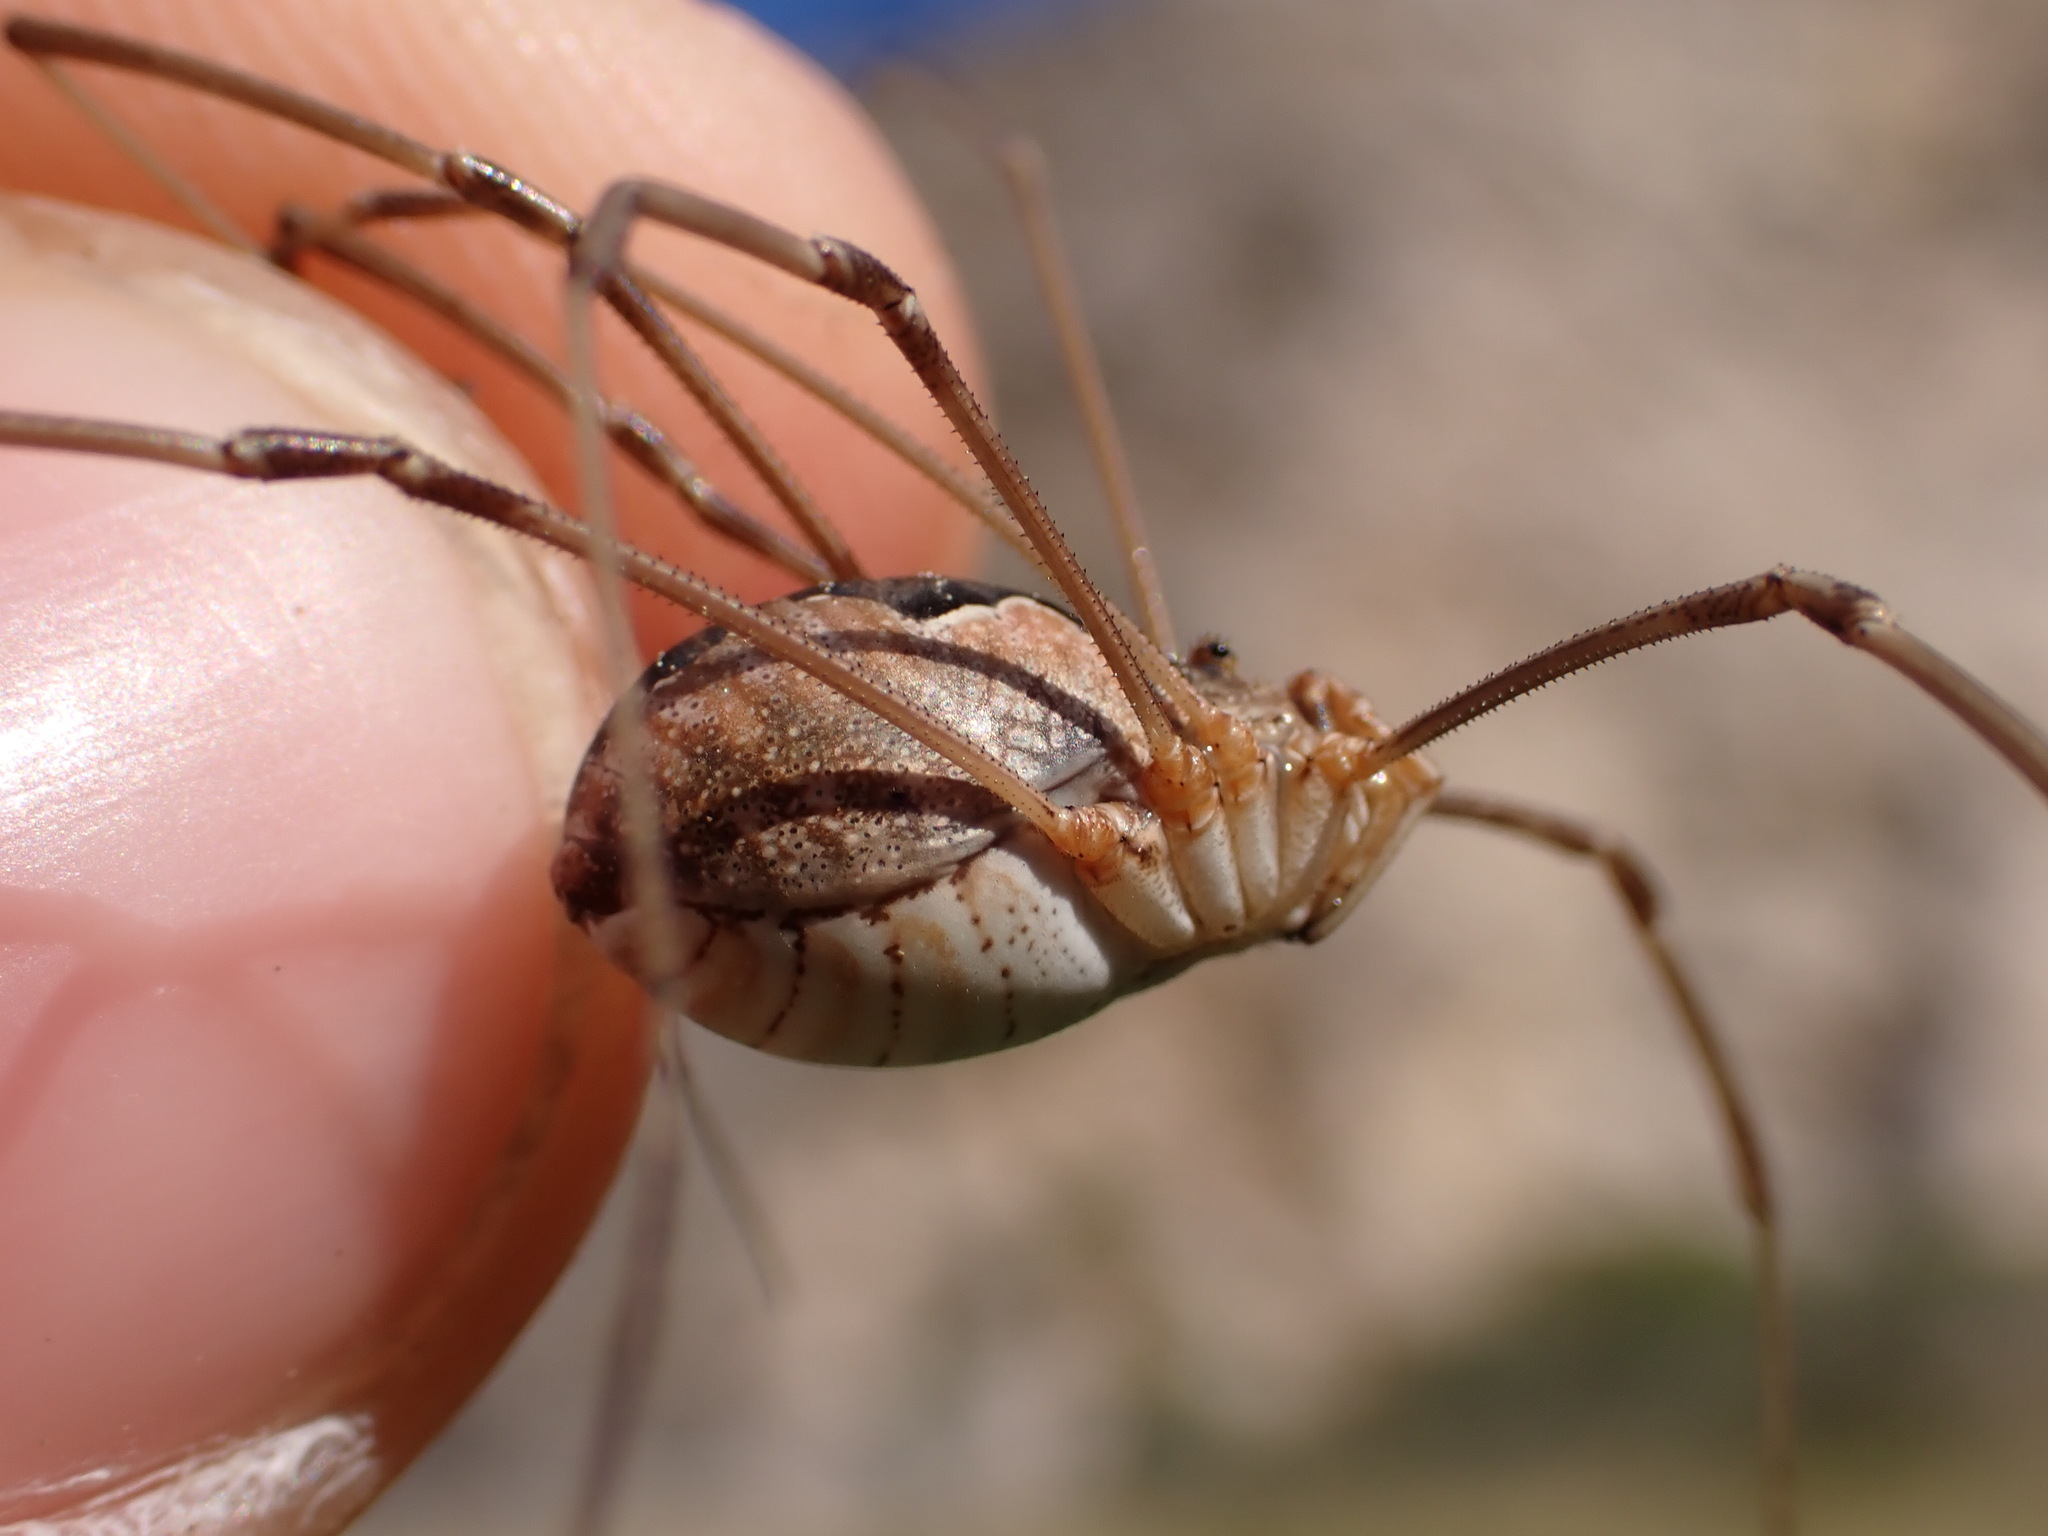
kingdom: Animalia
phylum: Arthropoda
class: Arachnida
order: Opiliones
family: Phalangiidae
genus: Phalangium
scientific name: Phalangium opilio
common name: Daddy longleg
